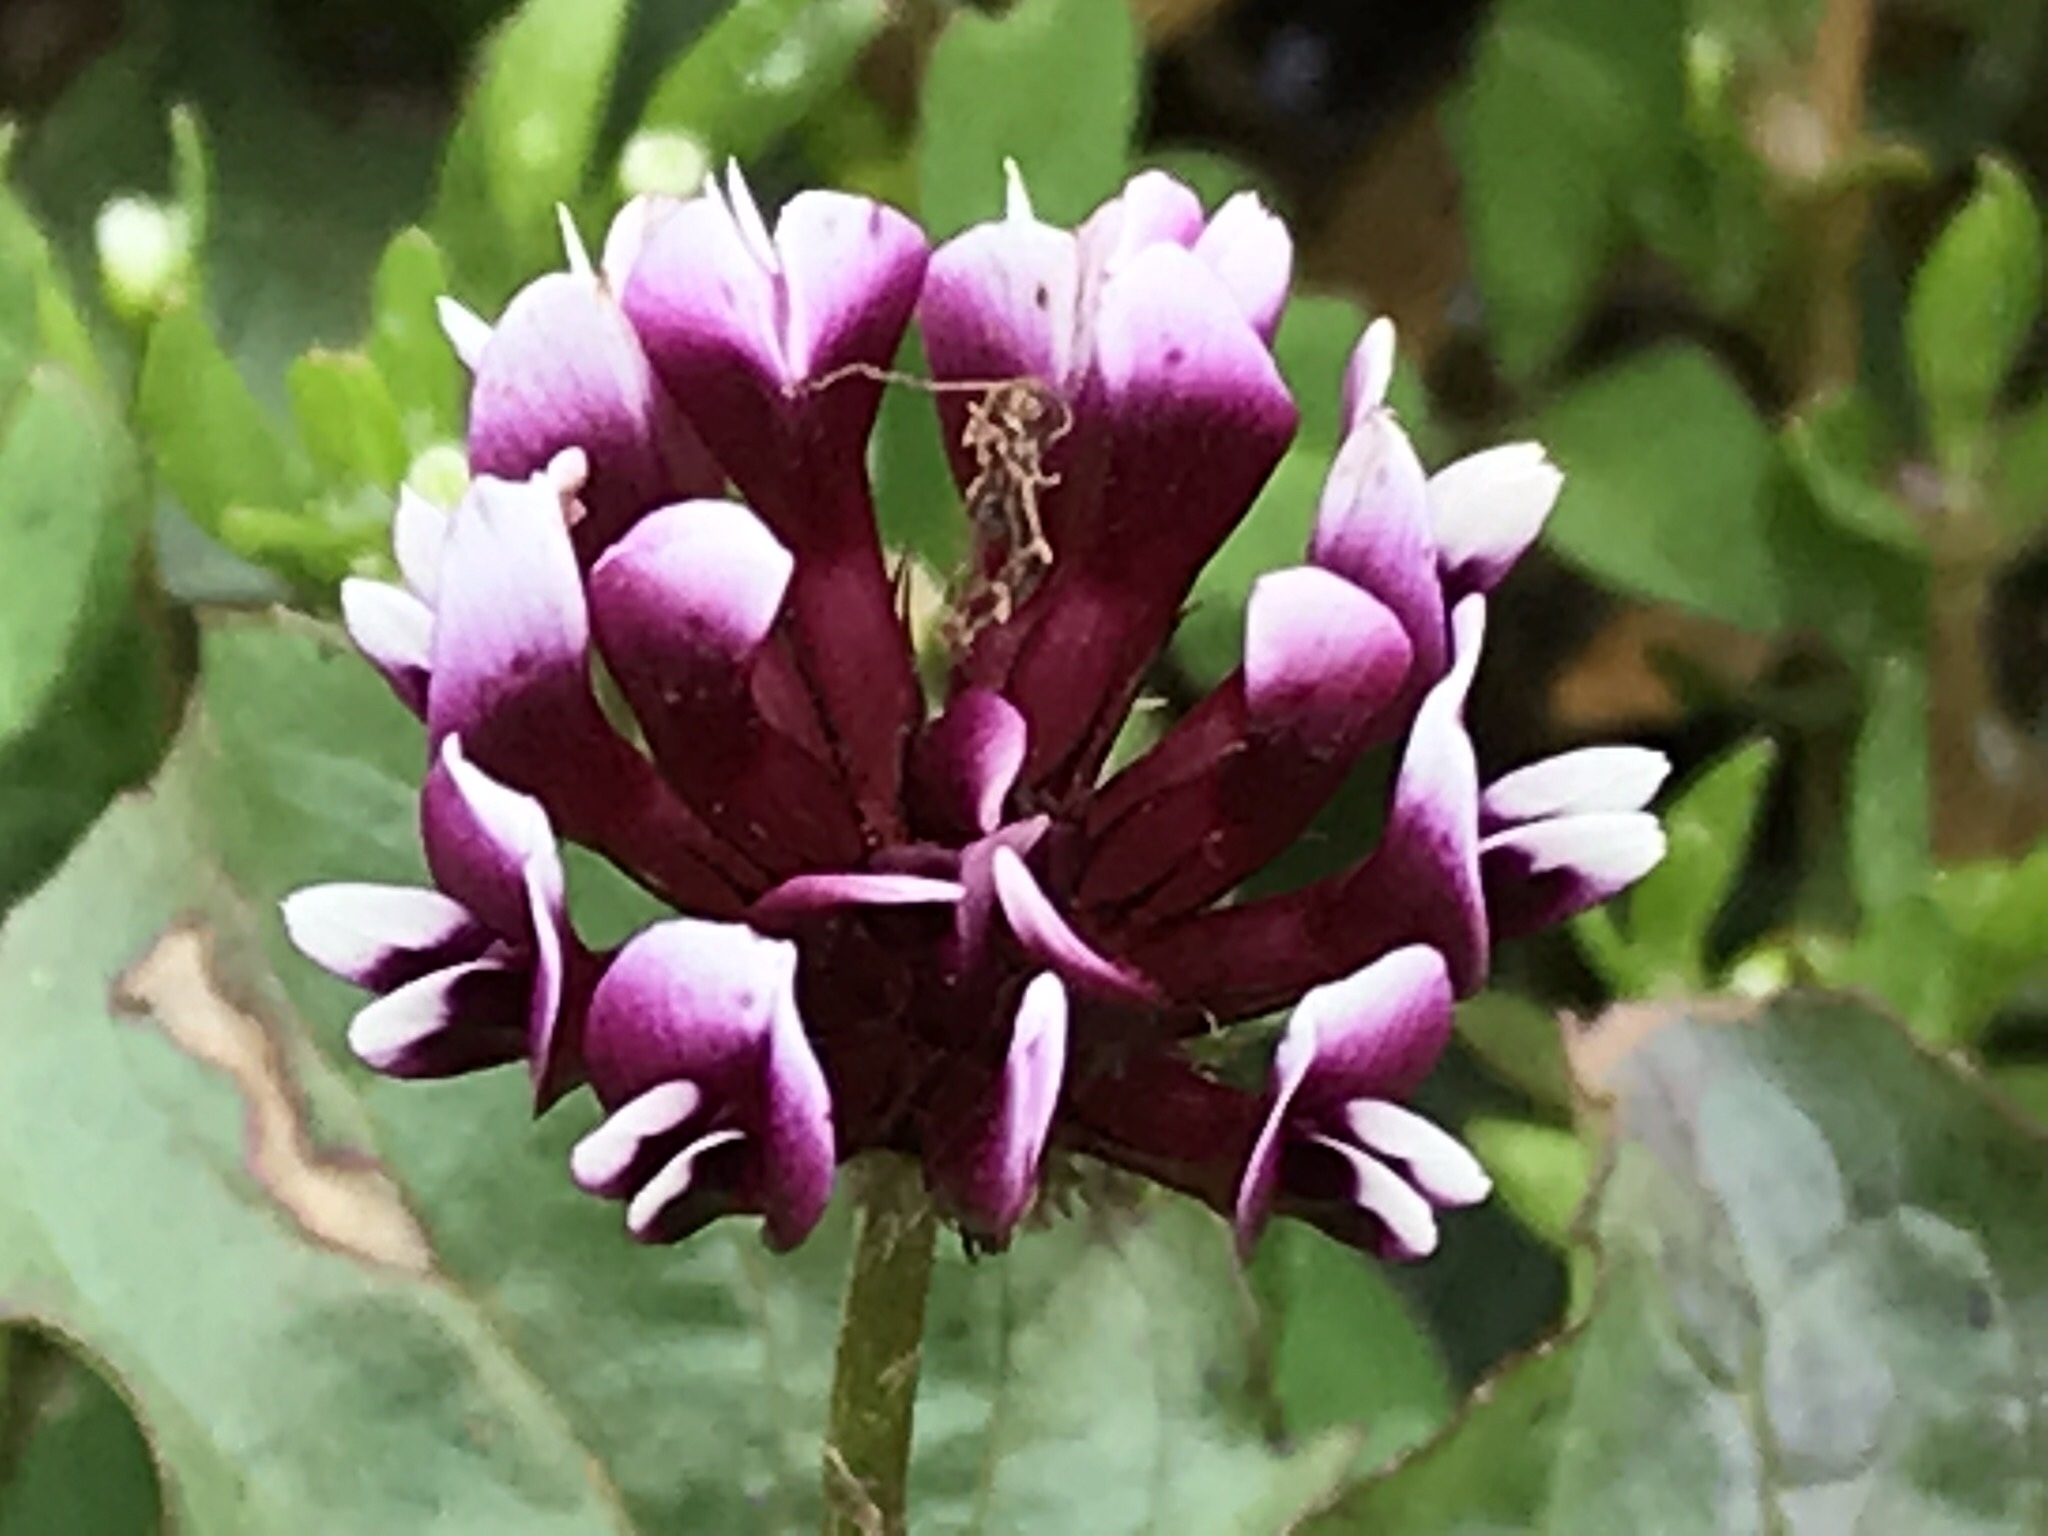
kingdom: Plantae
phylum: Tracheophyta
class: Magnoliopsida
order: Fabales
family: Fabaceae
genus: Trifolium
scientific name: Trifolium variegatum
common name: Whitetip clover
